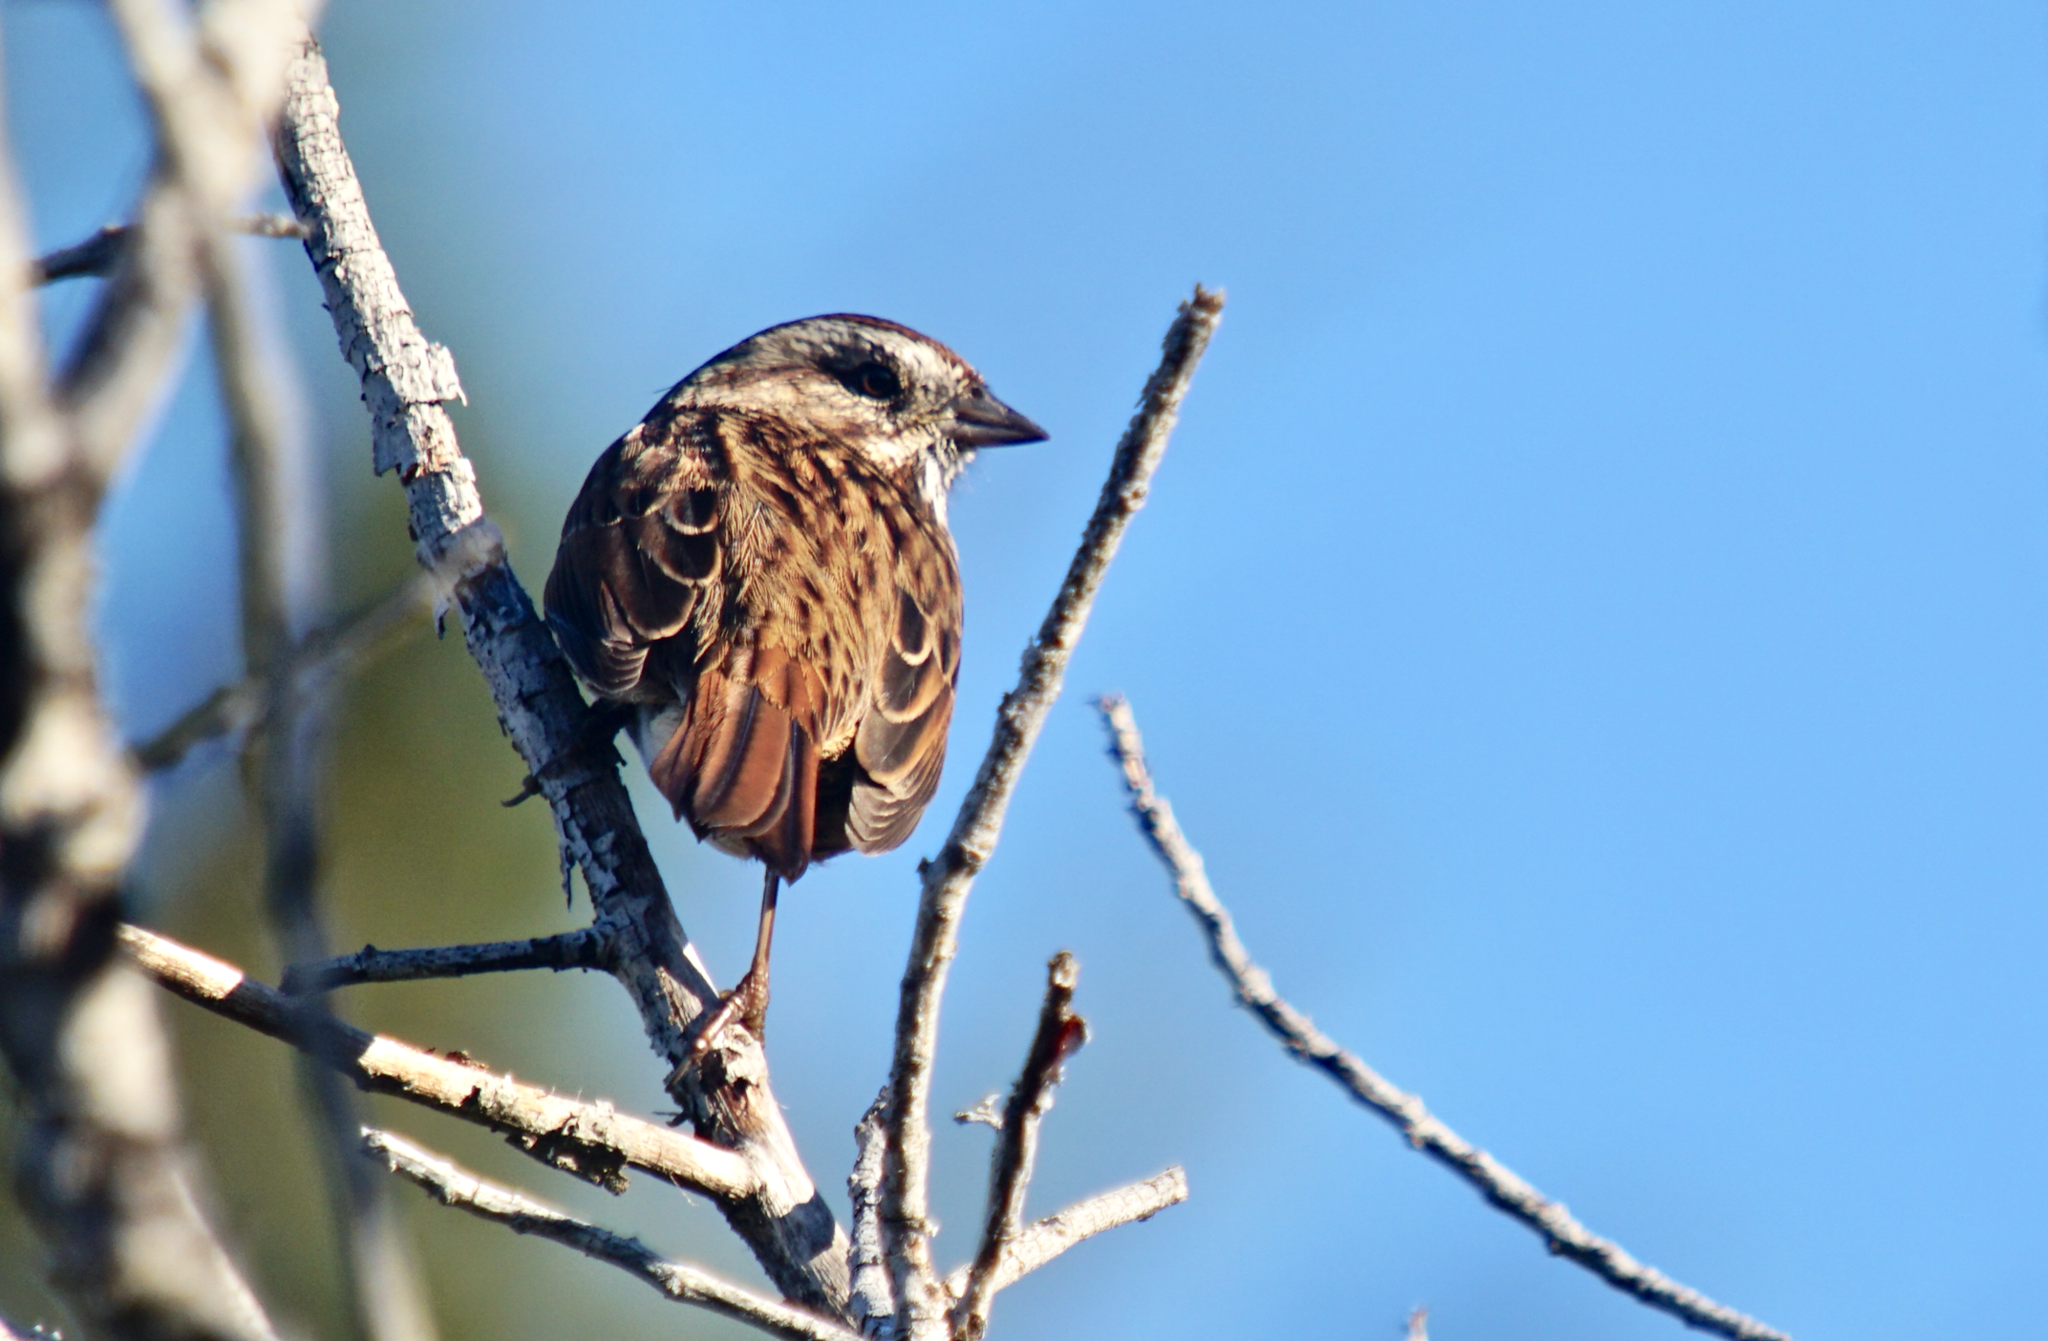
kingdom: Animalia
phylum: Chordata
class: Aves
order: Passeriformes
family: Passerellidae
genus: Melospiza
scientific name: Melospiza melodia
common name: Song sparrow
